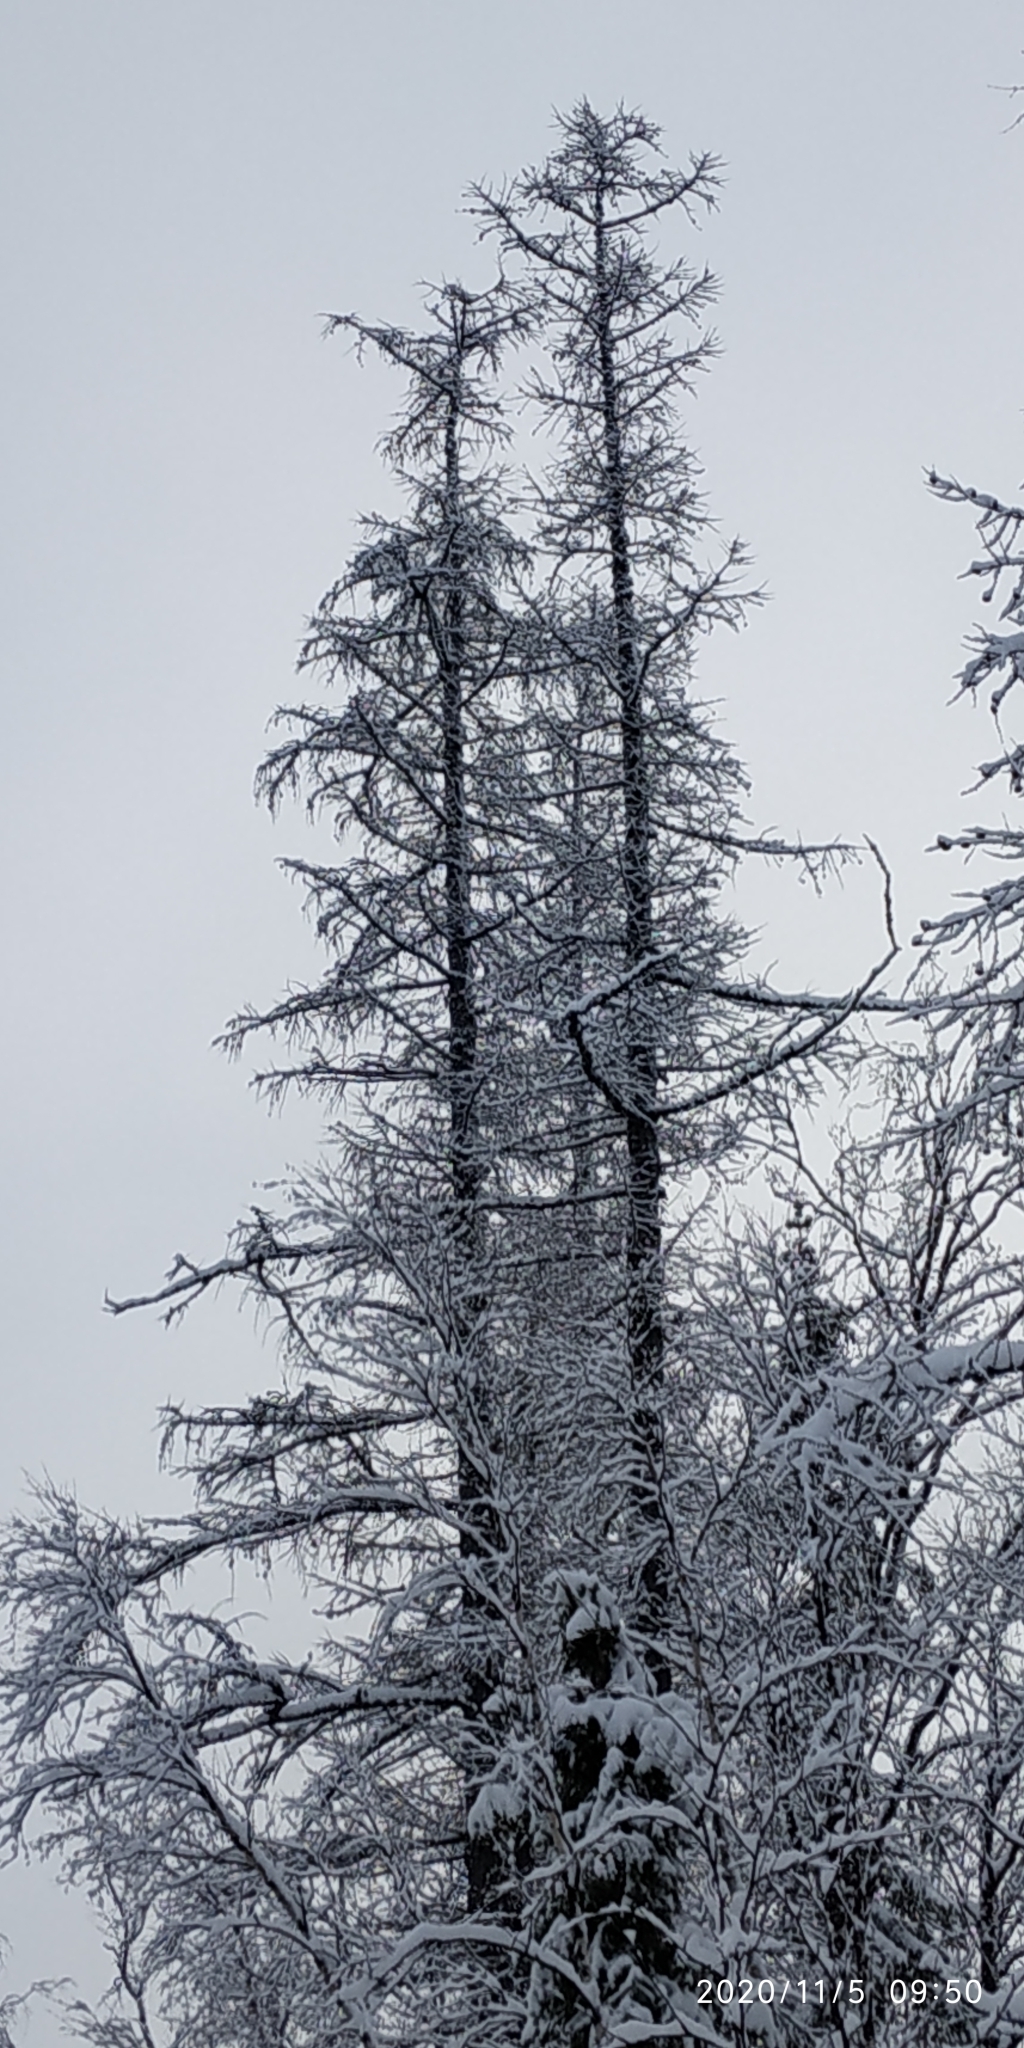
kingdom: Plantae
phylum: Tracheophyta
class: Pinopsida
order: Pinales
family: Pinaceae
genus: Larix
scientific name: Larix sibirica
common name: Siberian larch
